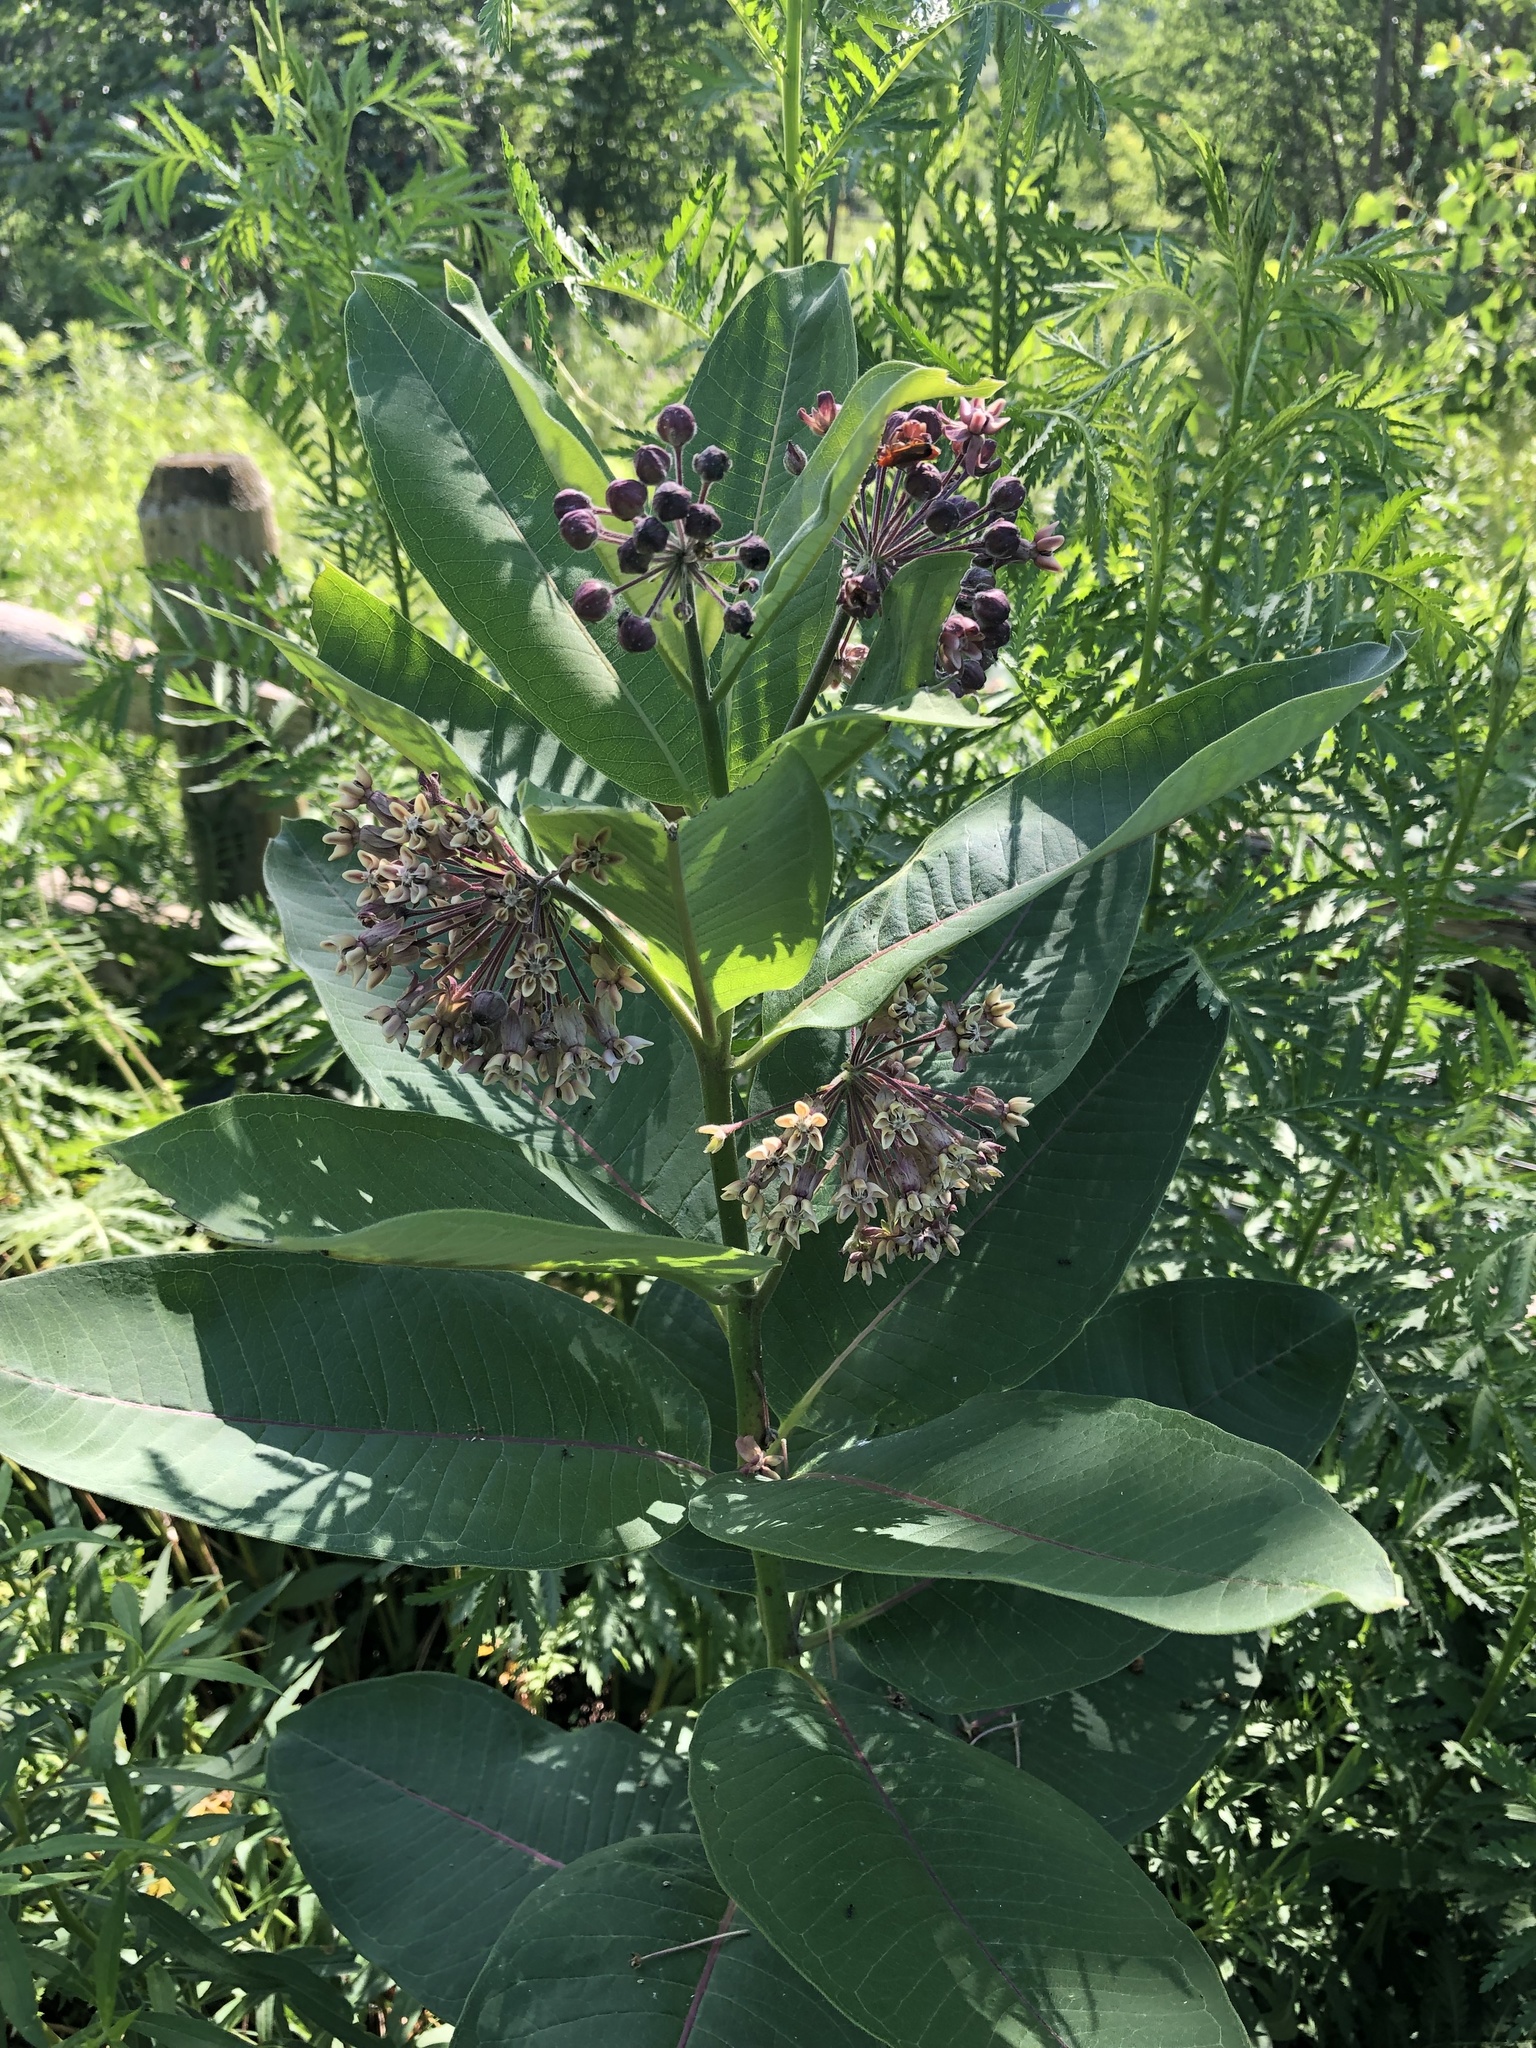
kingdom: Plantae
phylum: Tracheophyta
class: Magnoliopsida
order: Gentianales
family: Apocynaceae
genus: Asclepias
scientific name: Asclepias syriaca
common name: Common milkweed
